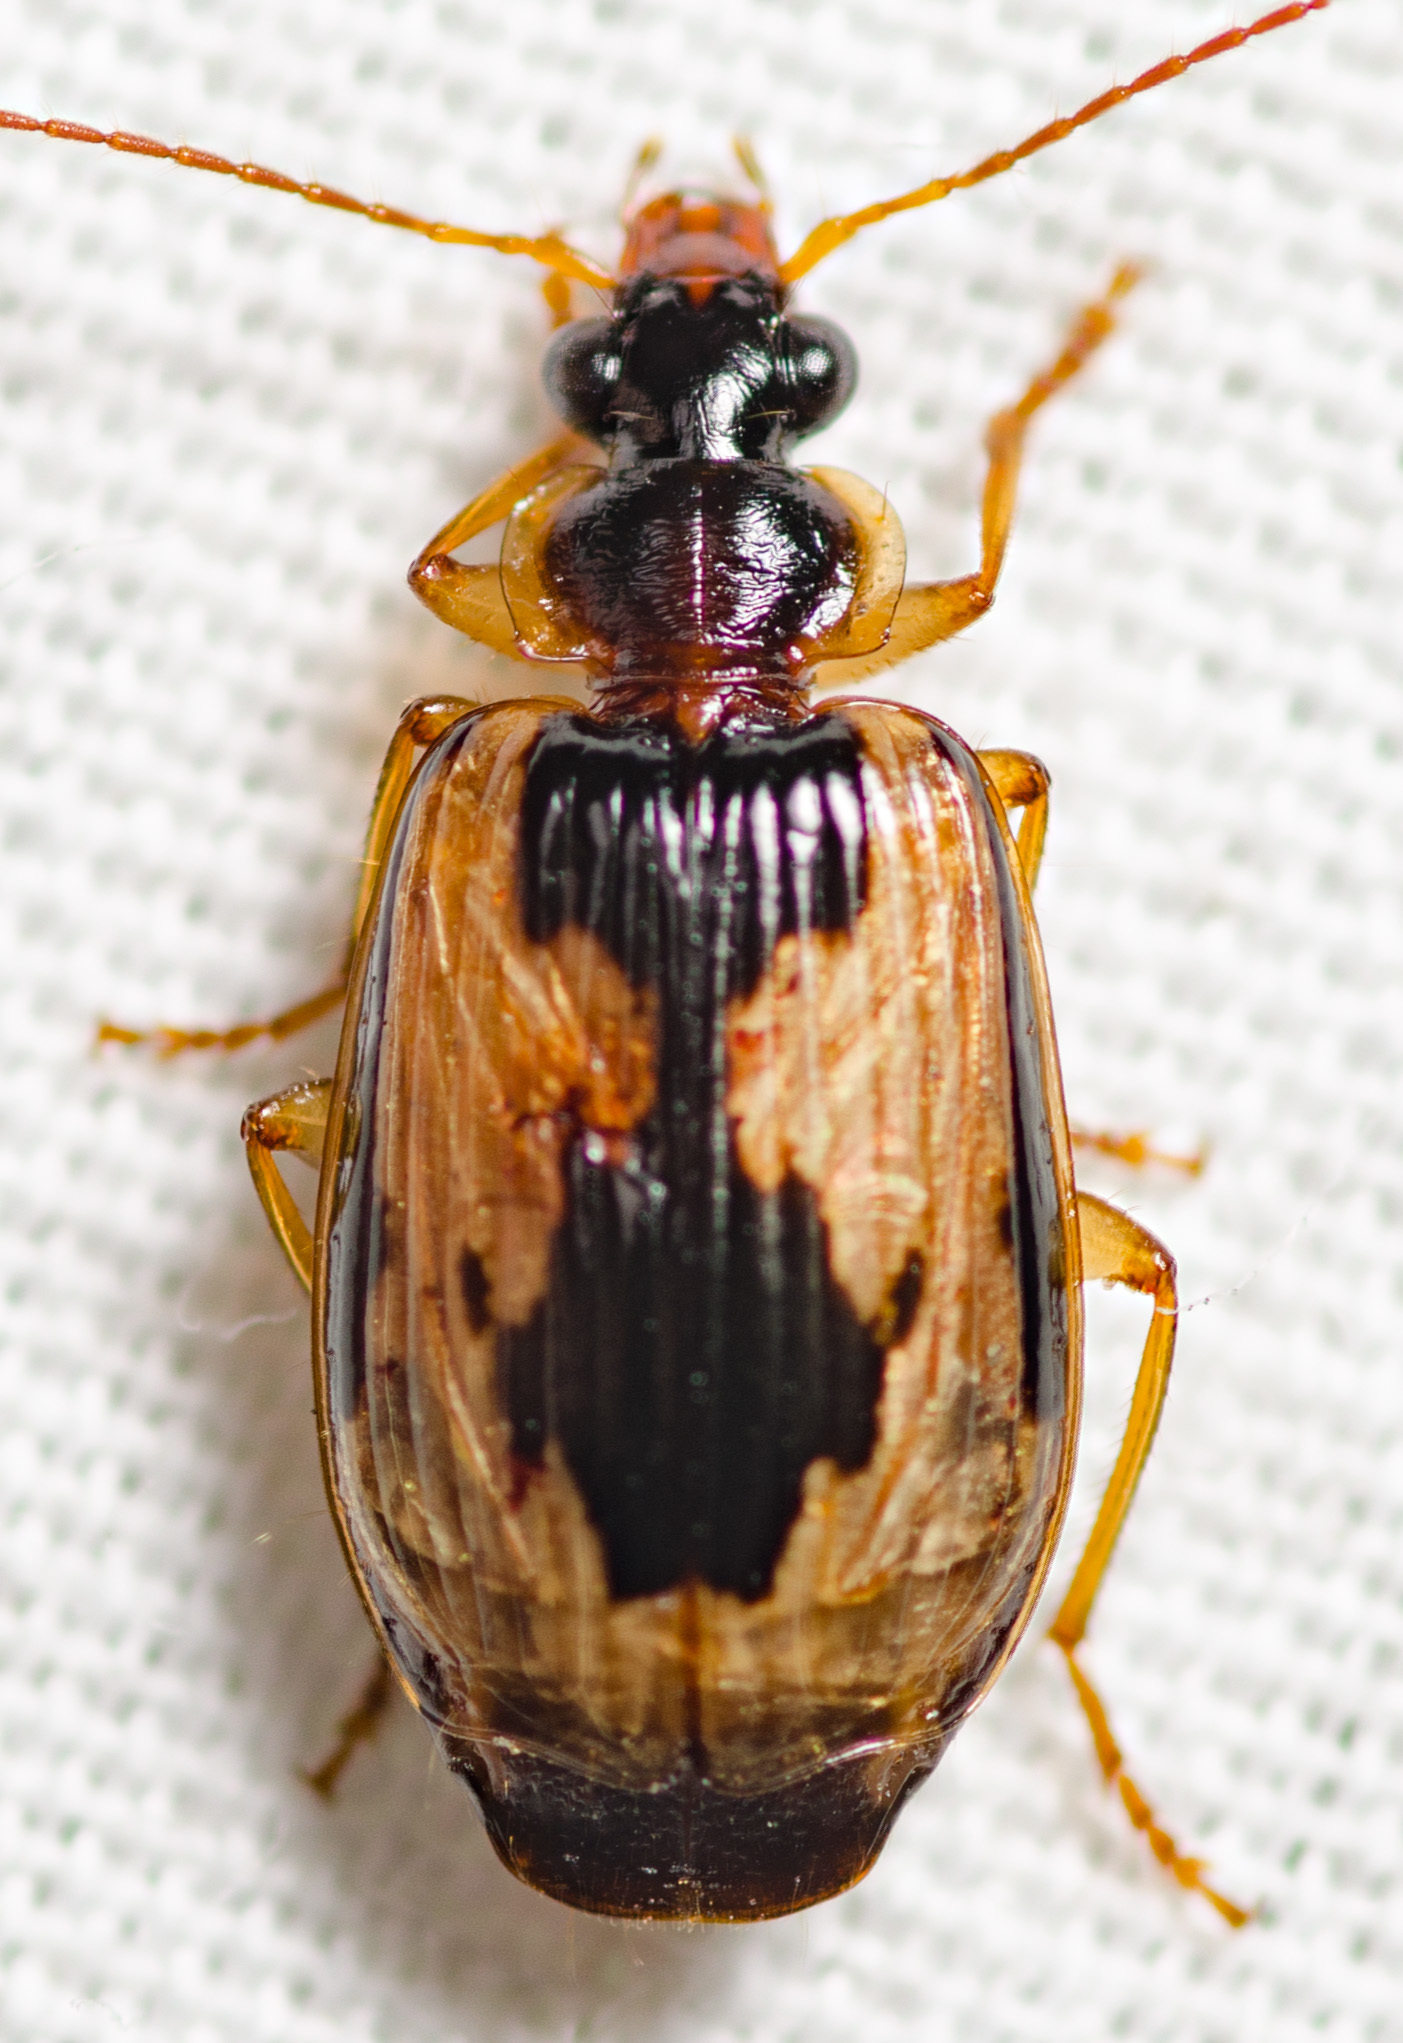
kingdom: Animalia
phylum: Arthropoda
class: Insecta
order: Coleoptera
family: Carabidae
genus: Lebia
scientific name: Lebia fuscata
